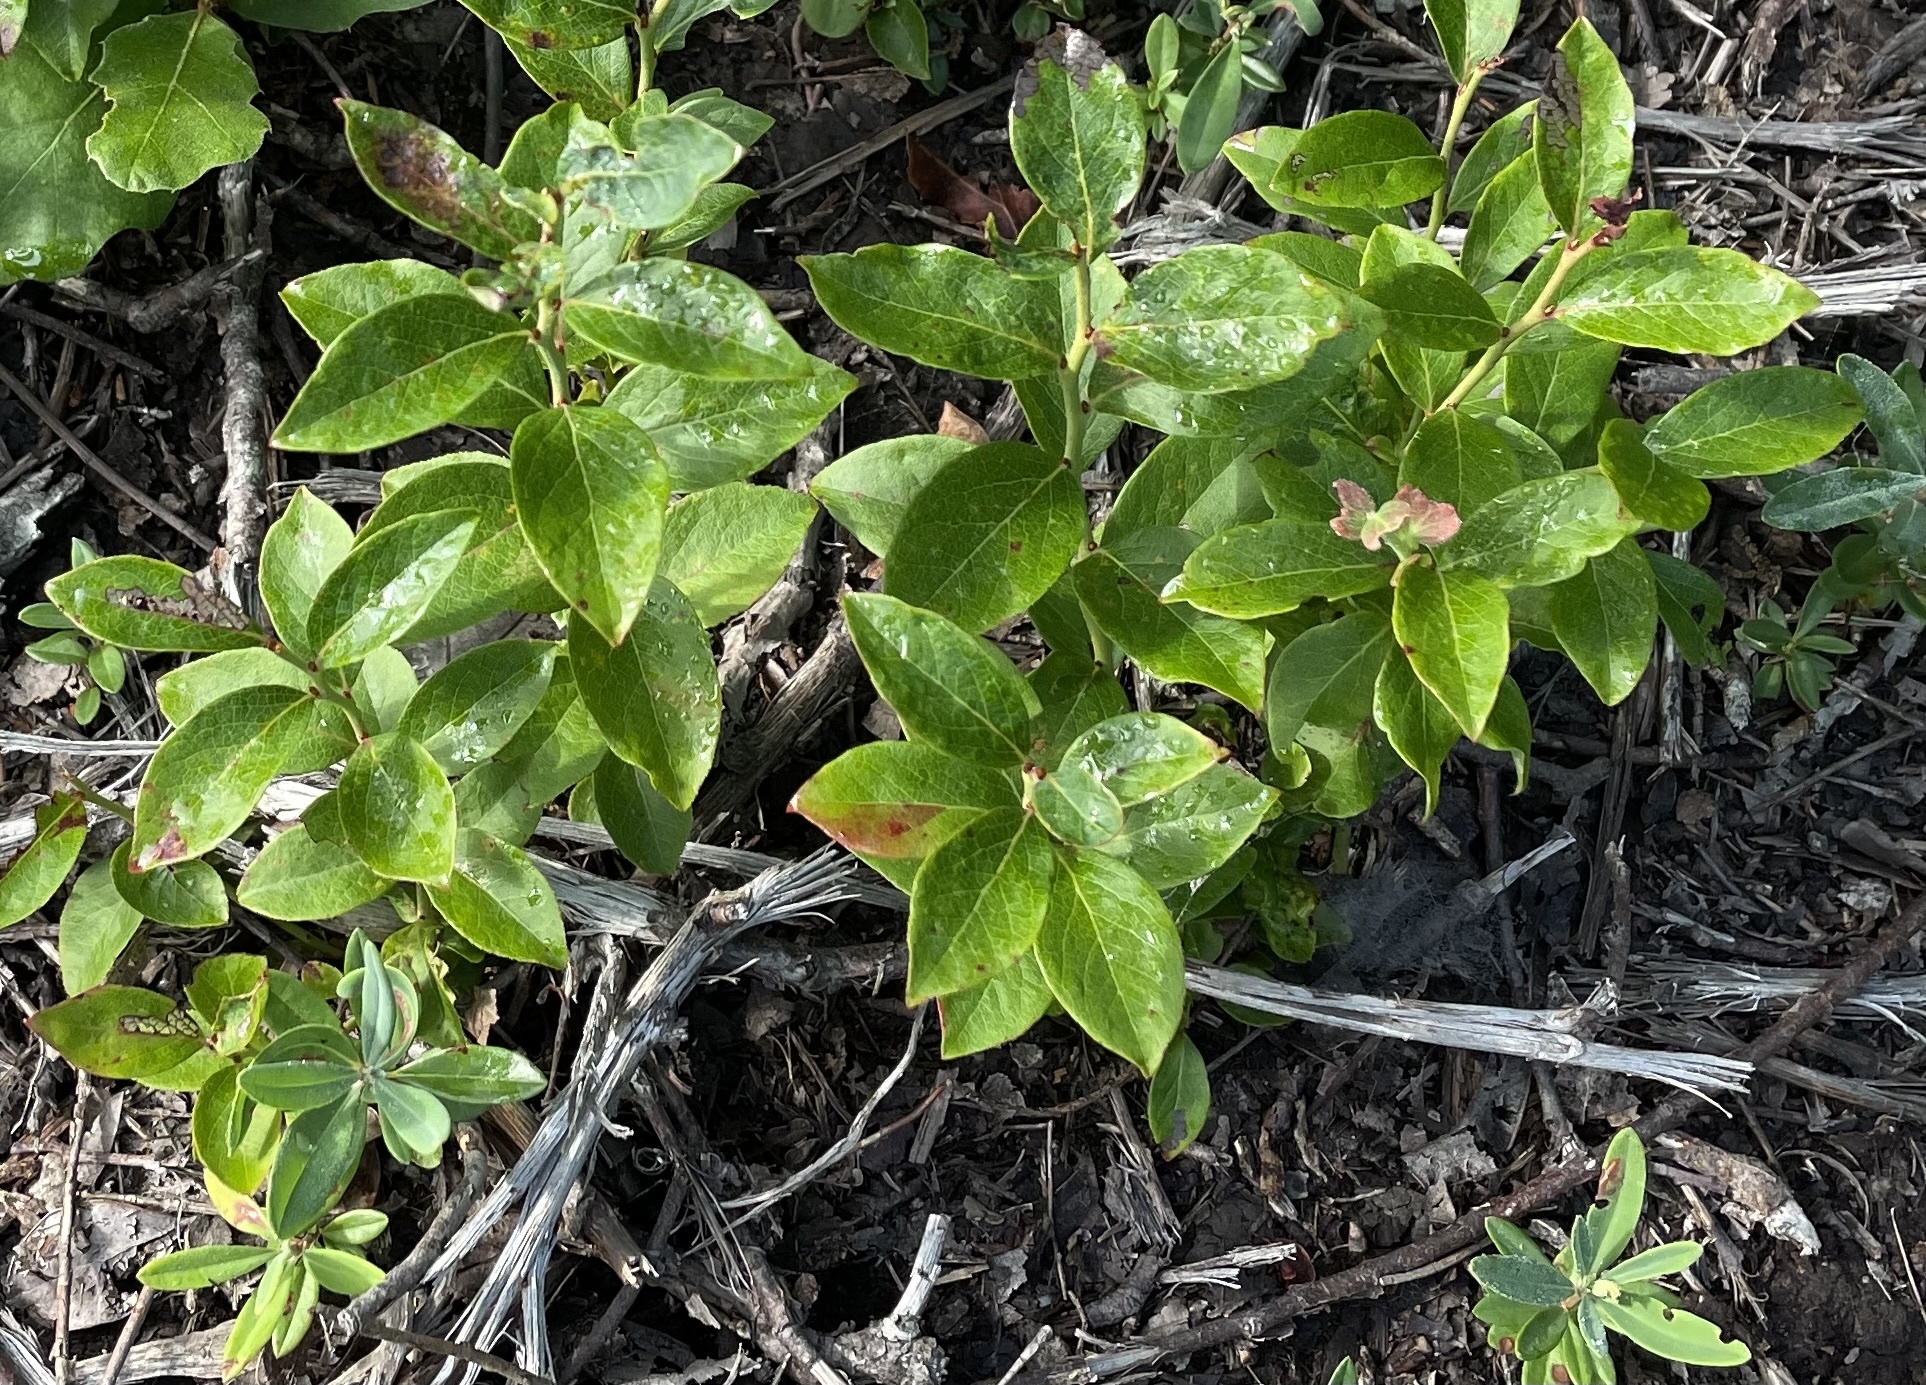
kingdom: Plantae
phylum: Tracheophyta
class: Magnoliopsida
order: Ericales
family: Ericaceae
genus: Vaccinium
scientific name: Vaccinium angustifolium
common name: Early lowbush blueberry
